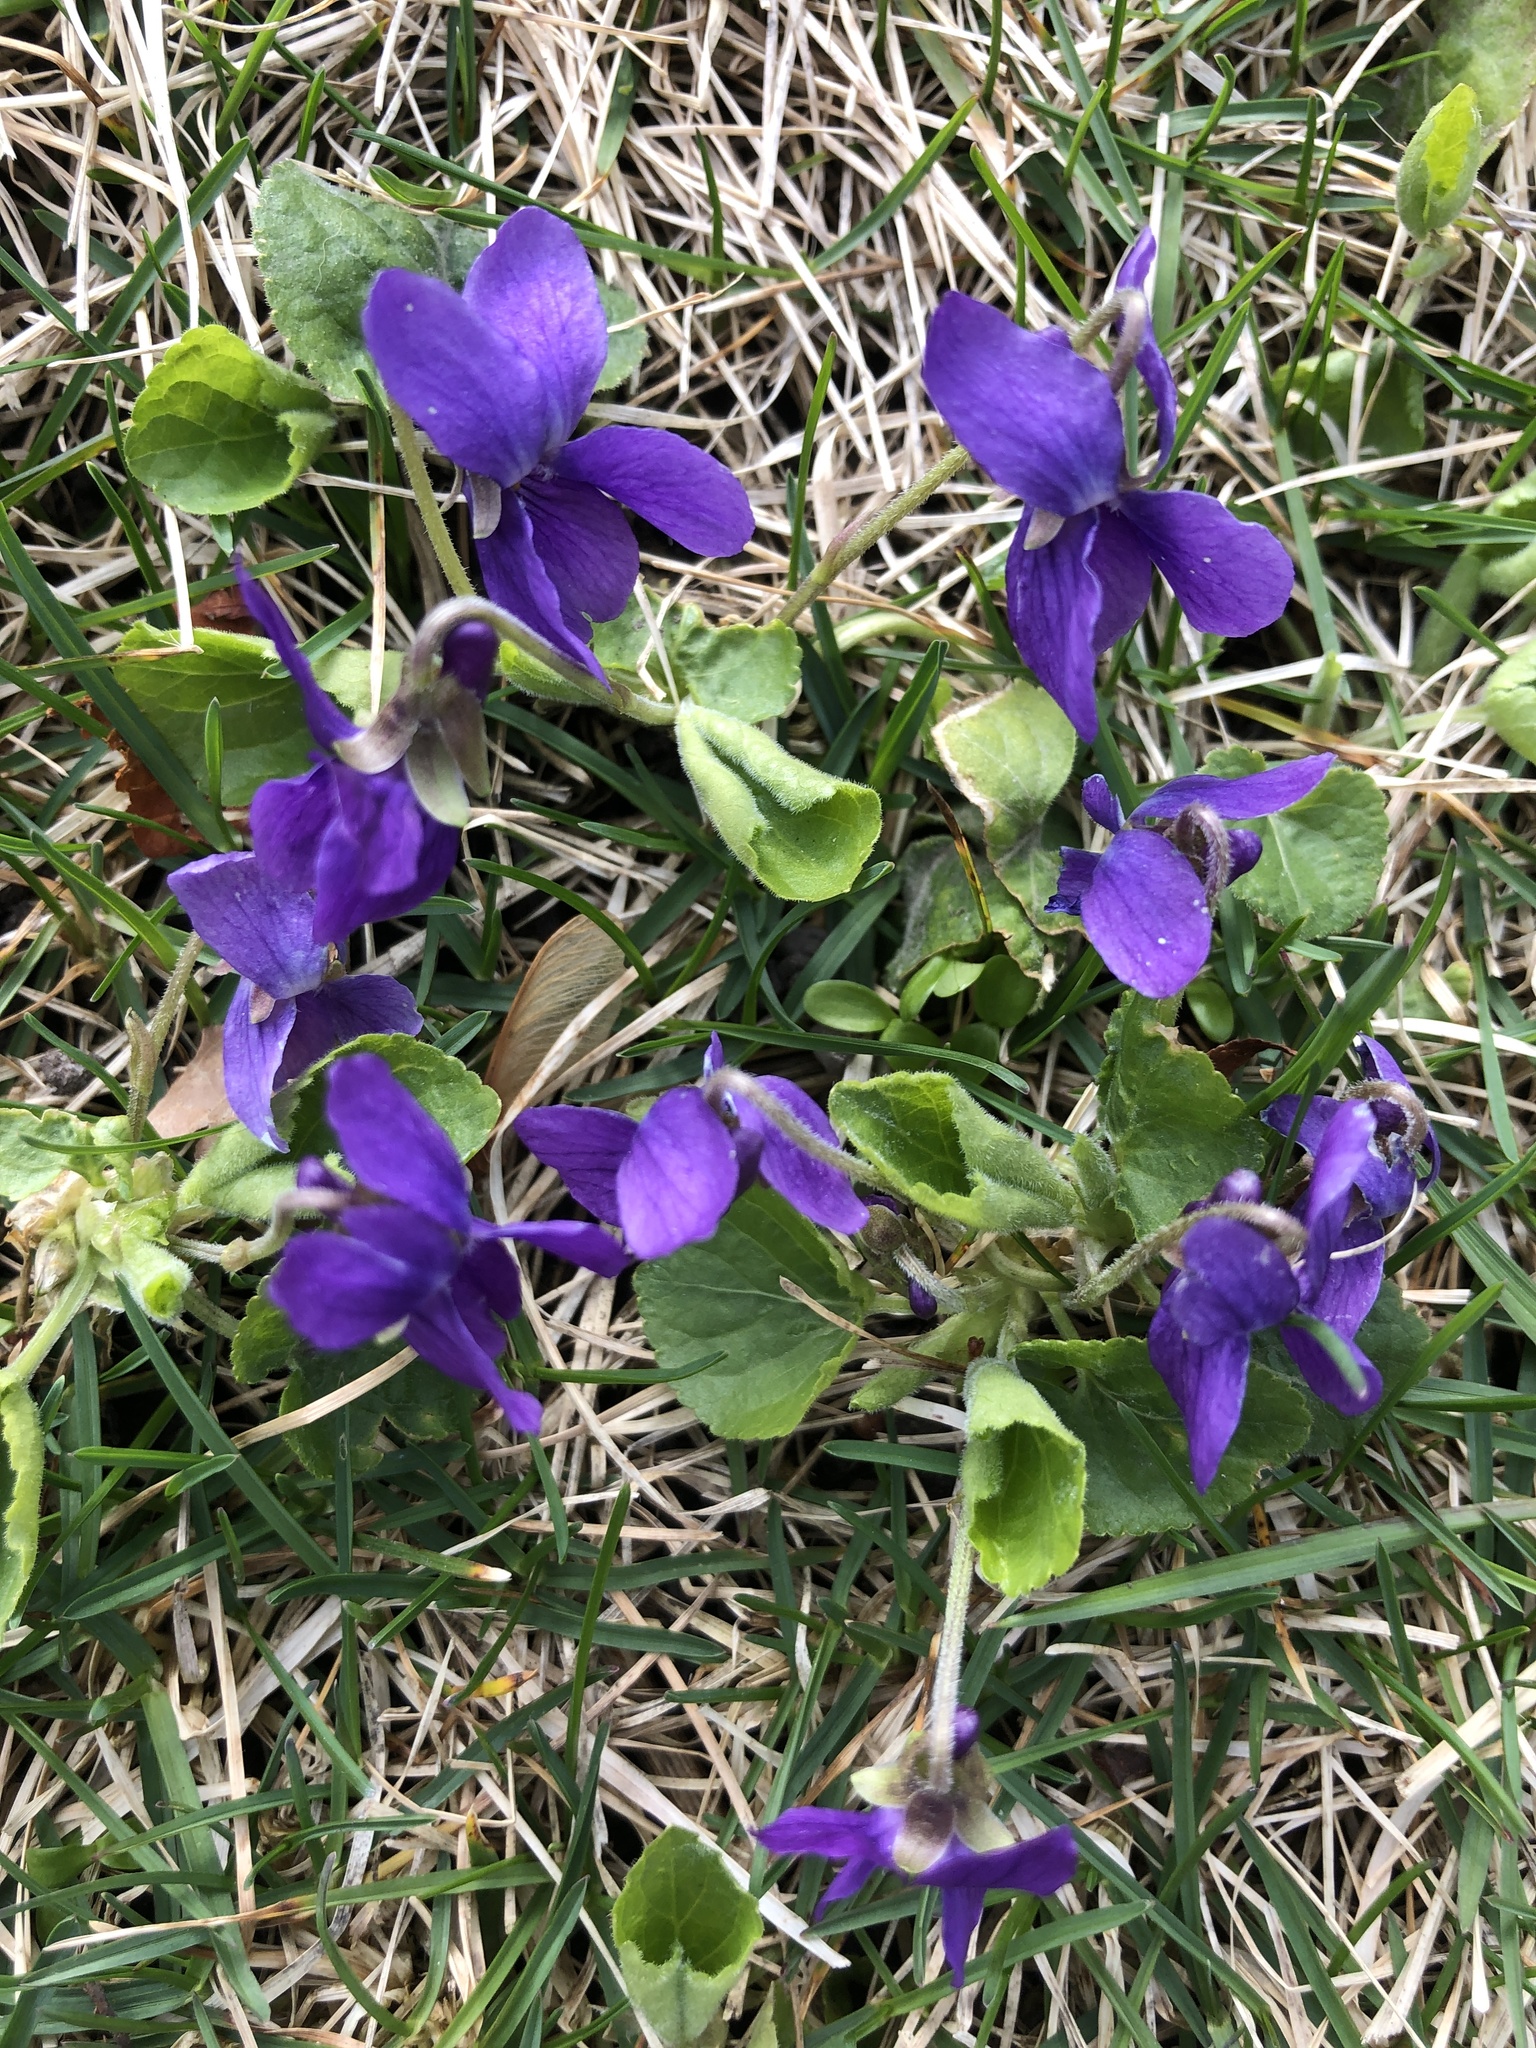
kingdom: Plantae
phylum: Tracheophyta
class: Magnoliopsida
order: Malpighiales
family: Violaceae
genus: Viola
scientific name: Viola odorata
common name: Sweet violet
